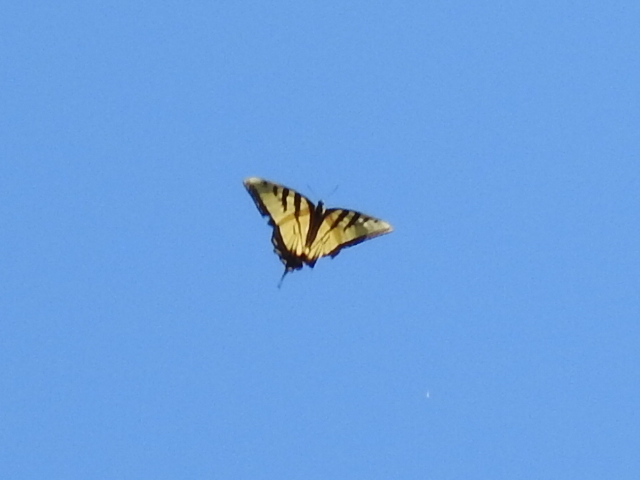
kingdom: Animalia
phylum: Arthropoda
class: Insecta
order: Lepidoptera
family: Papilionidae
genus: Papilio
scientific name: Papilio glaucus
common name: Tiger swallowtail
